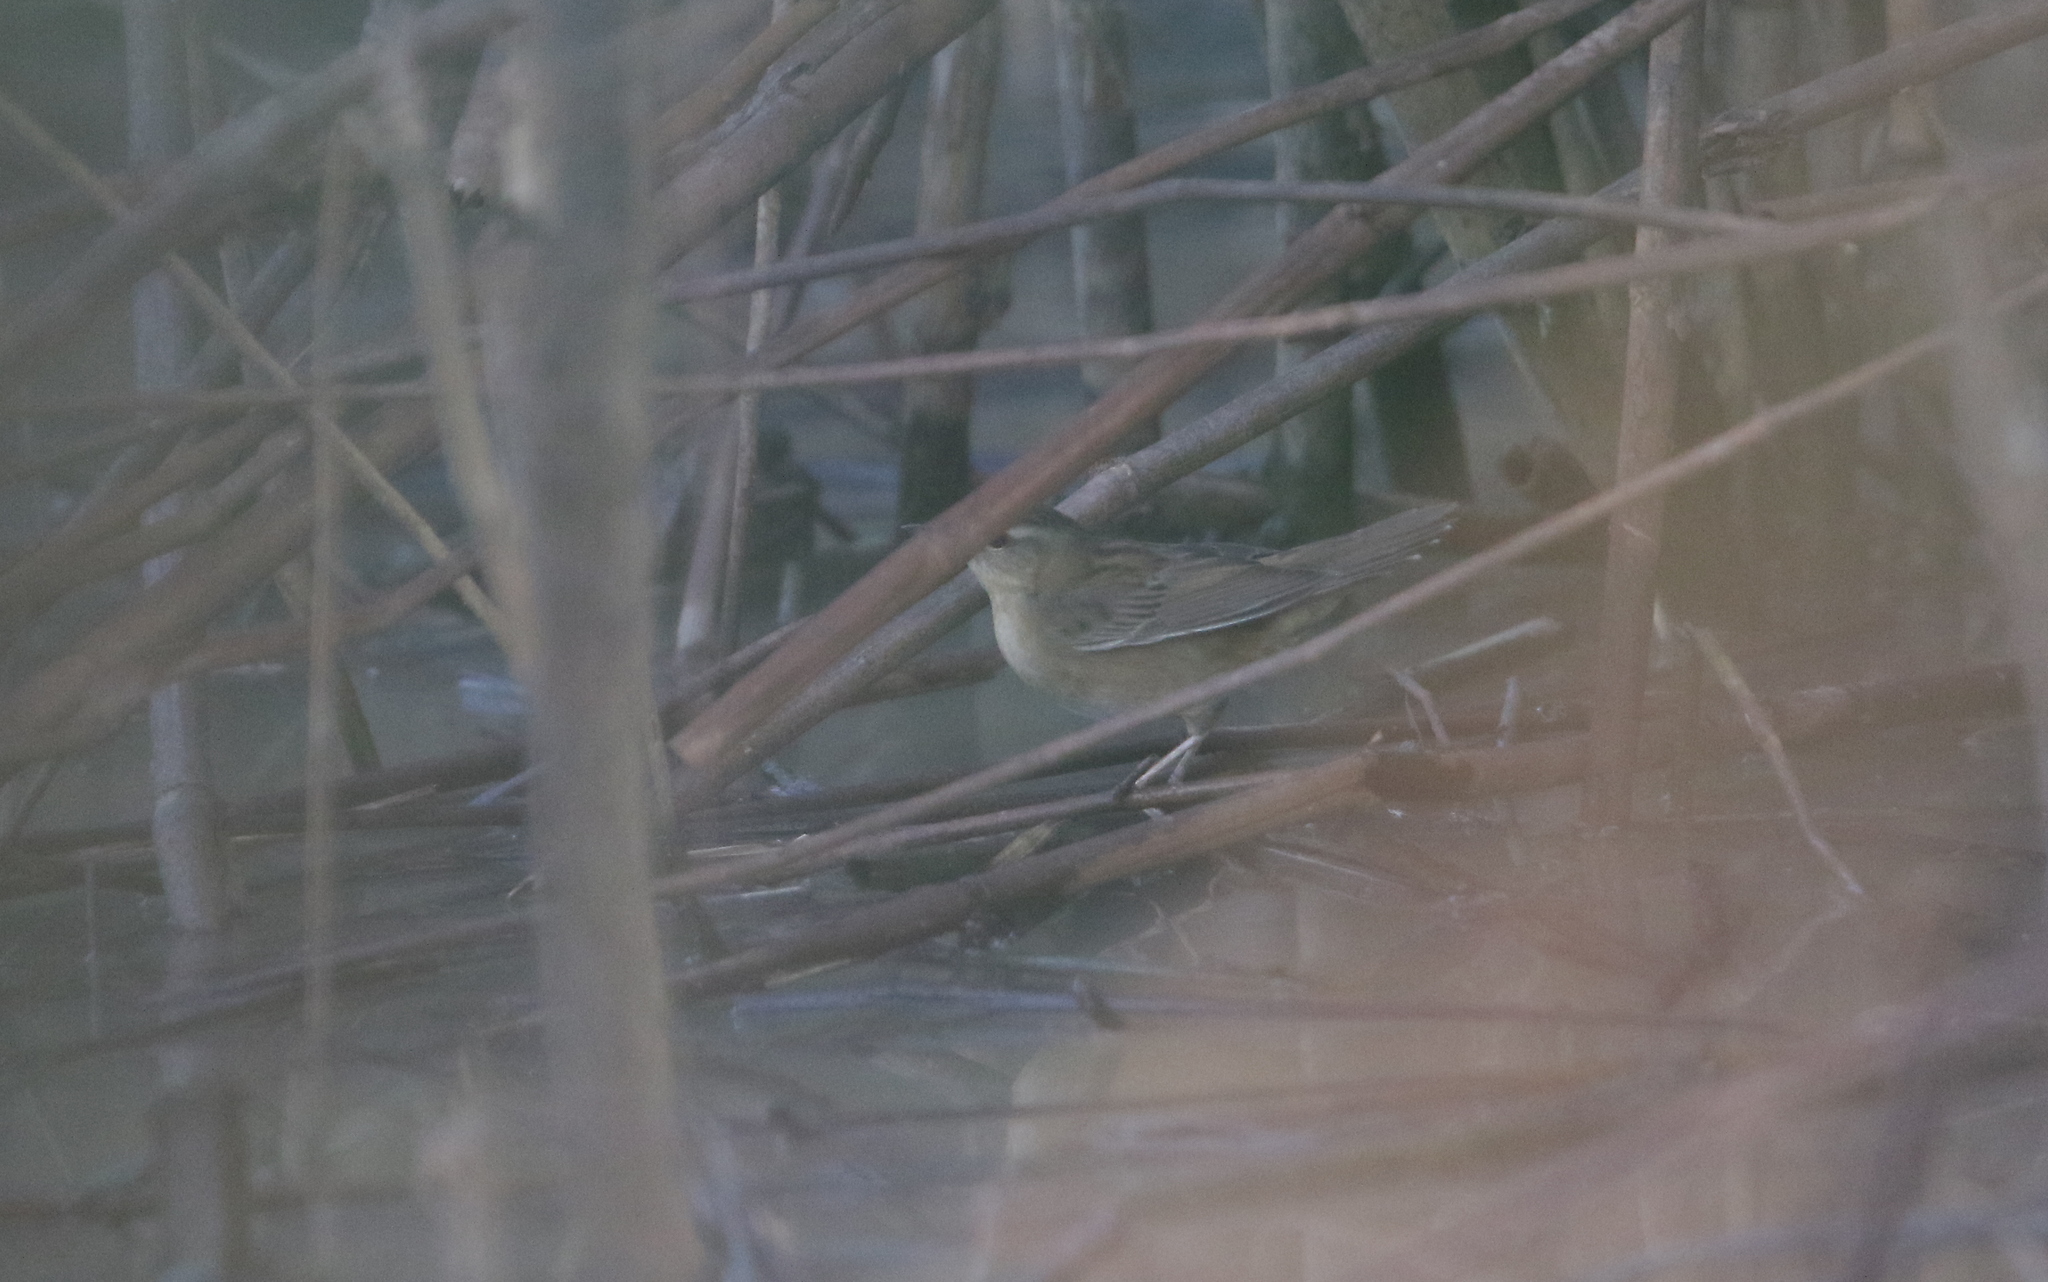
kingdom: Animalia
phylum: Chordata
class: Aves
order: Passeriformes
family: Locustellidae
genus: Locustella
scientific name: Locustella certhiola
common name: Pallas's grasshopper warbler
